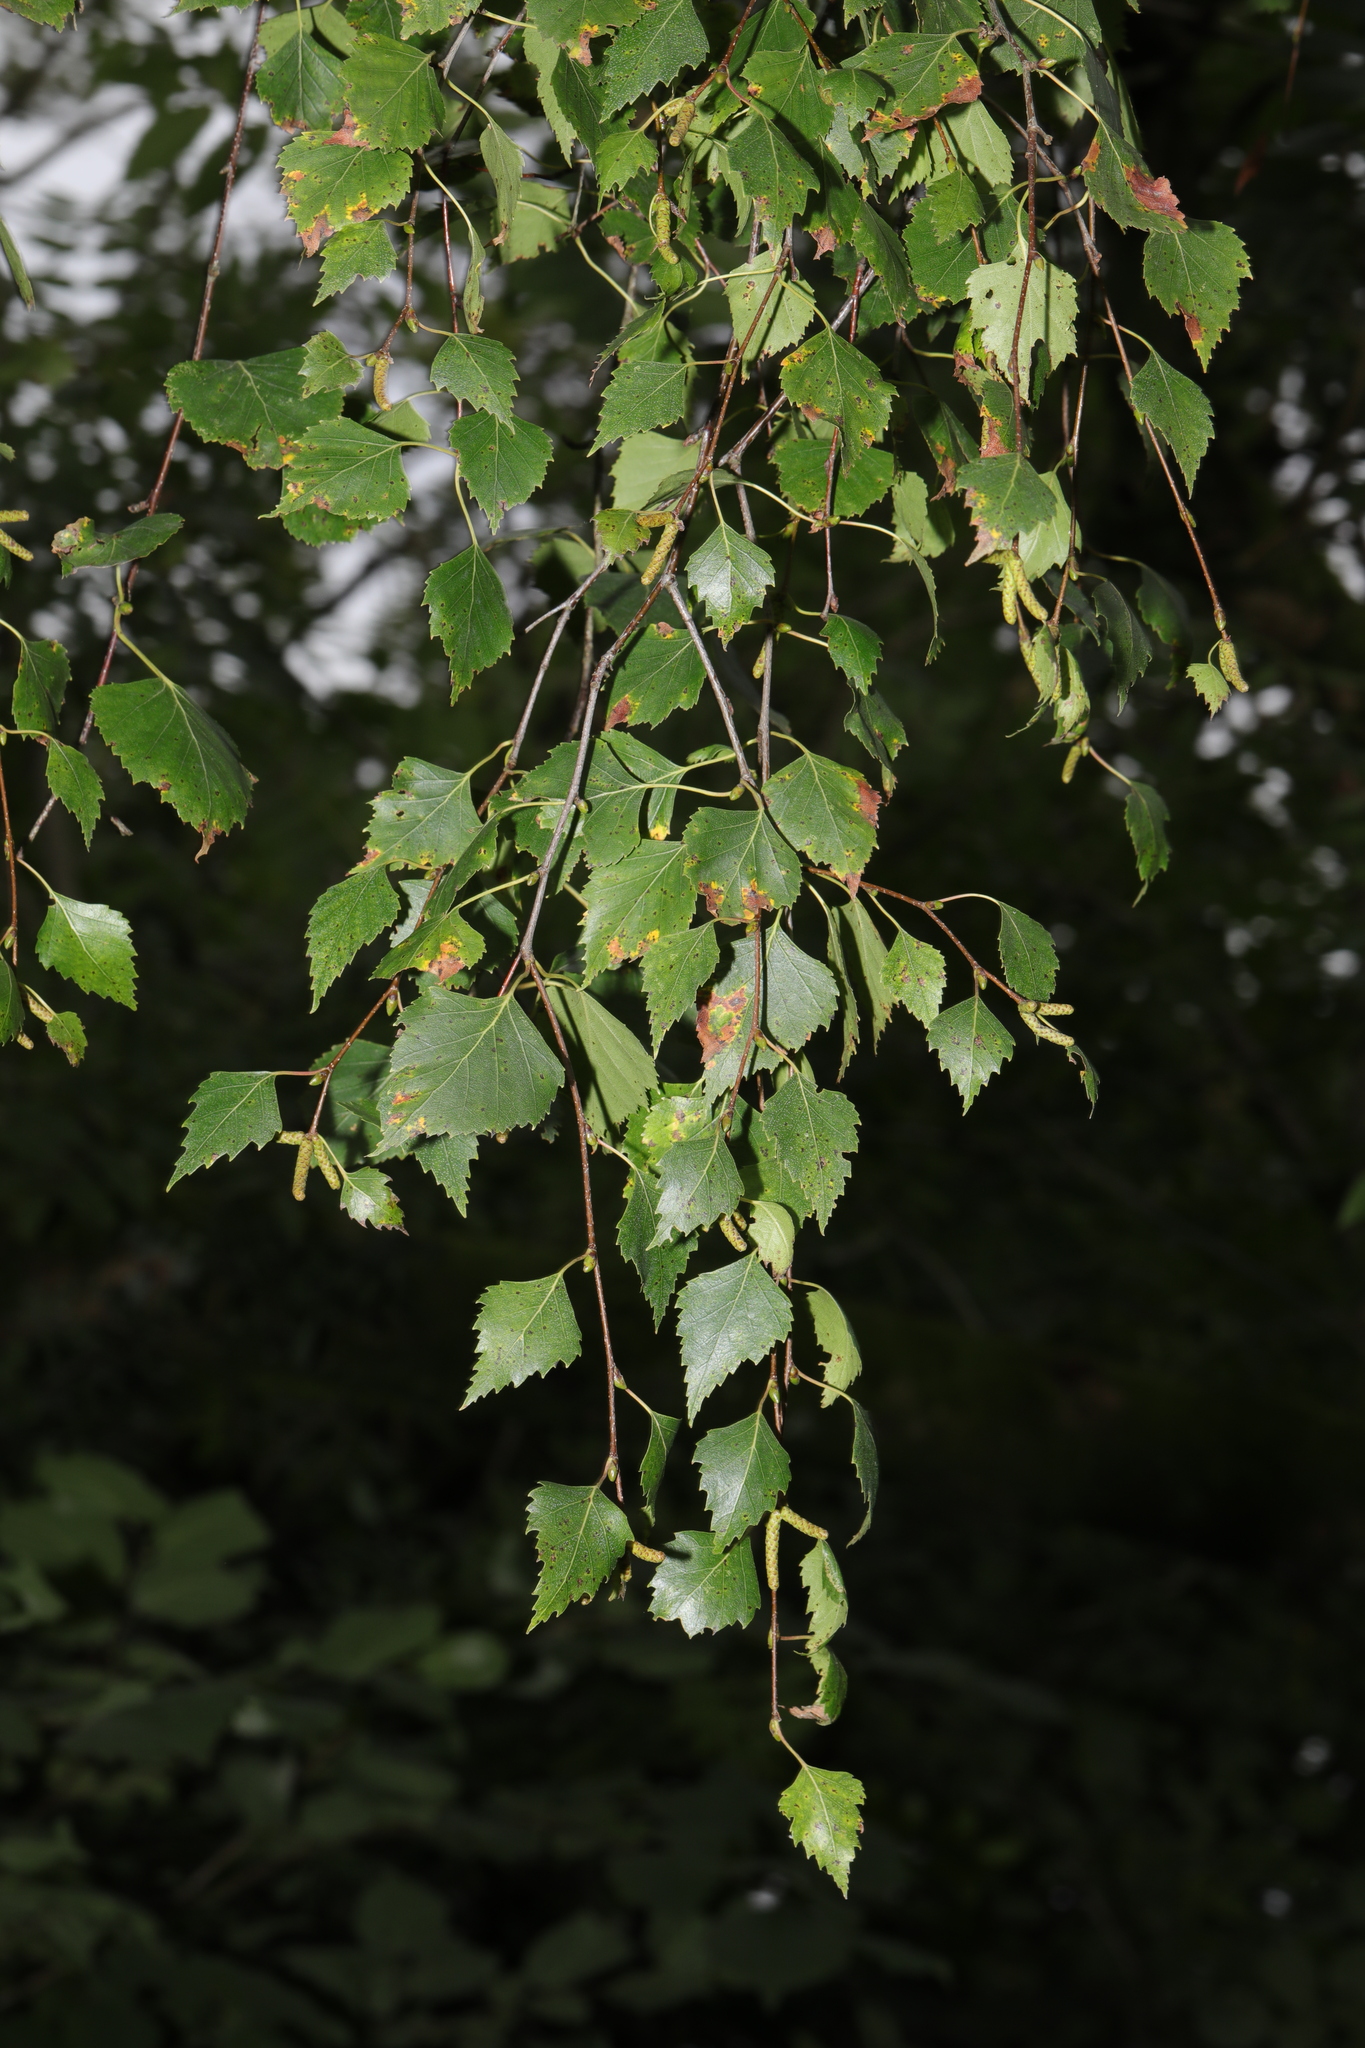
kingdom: Plantae
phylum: Tracheophyta
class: Magnoliopsida
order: Fagales
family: Betulaceae
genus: Betula
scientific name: Betula pendula
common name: Silver birch
